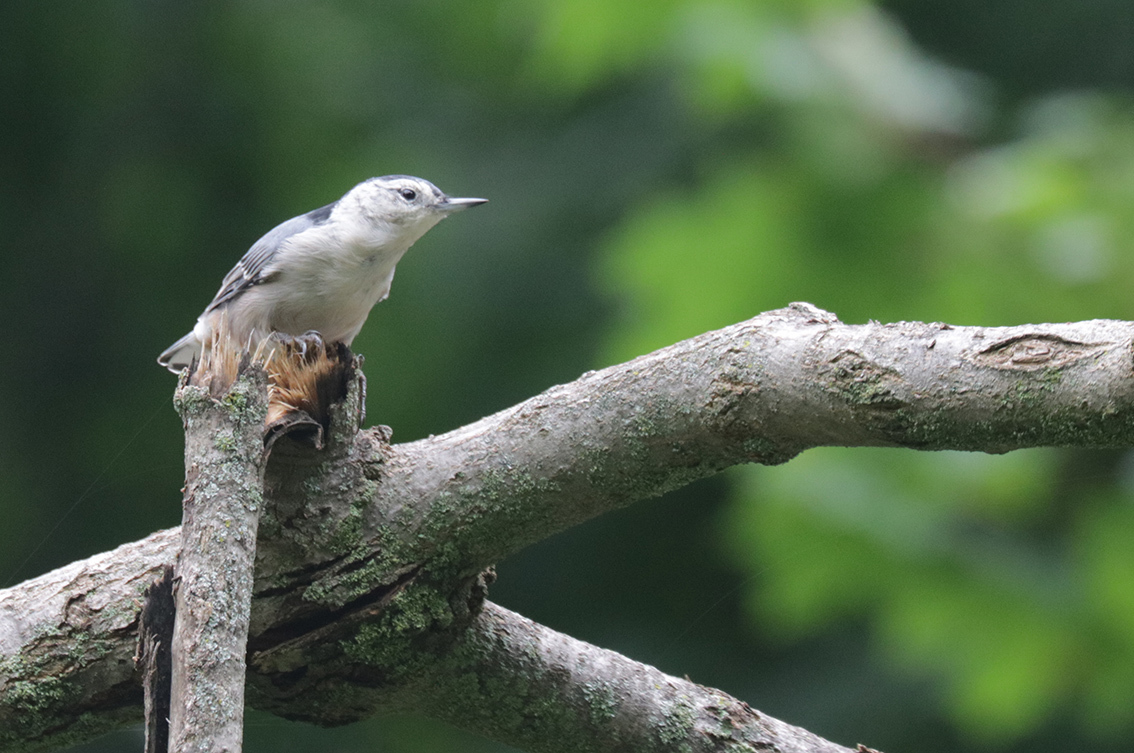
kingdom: Animalia
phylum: Chordata
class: Aves
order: Passeriformes
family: Sittidae
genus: Sitta
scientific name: Sitta carolinensis
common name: White-breasted nuthatch
